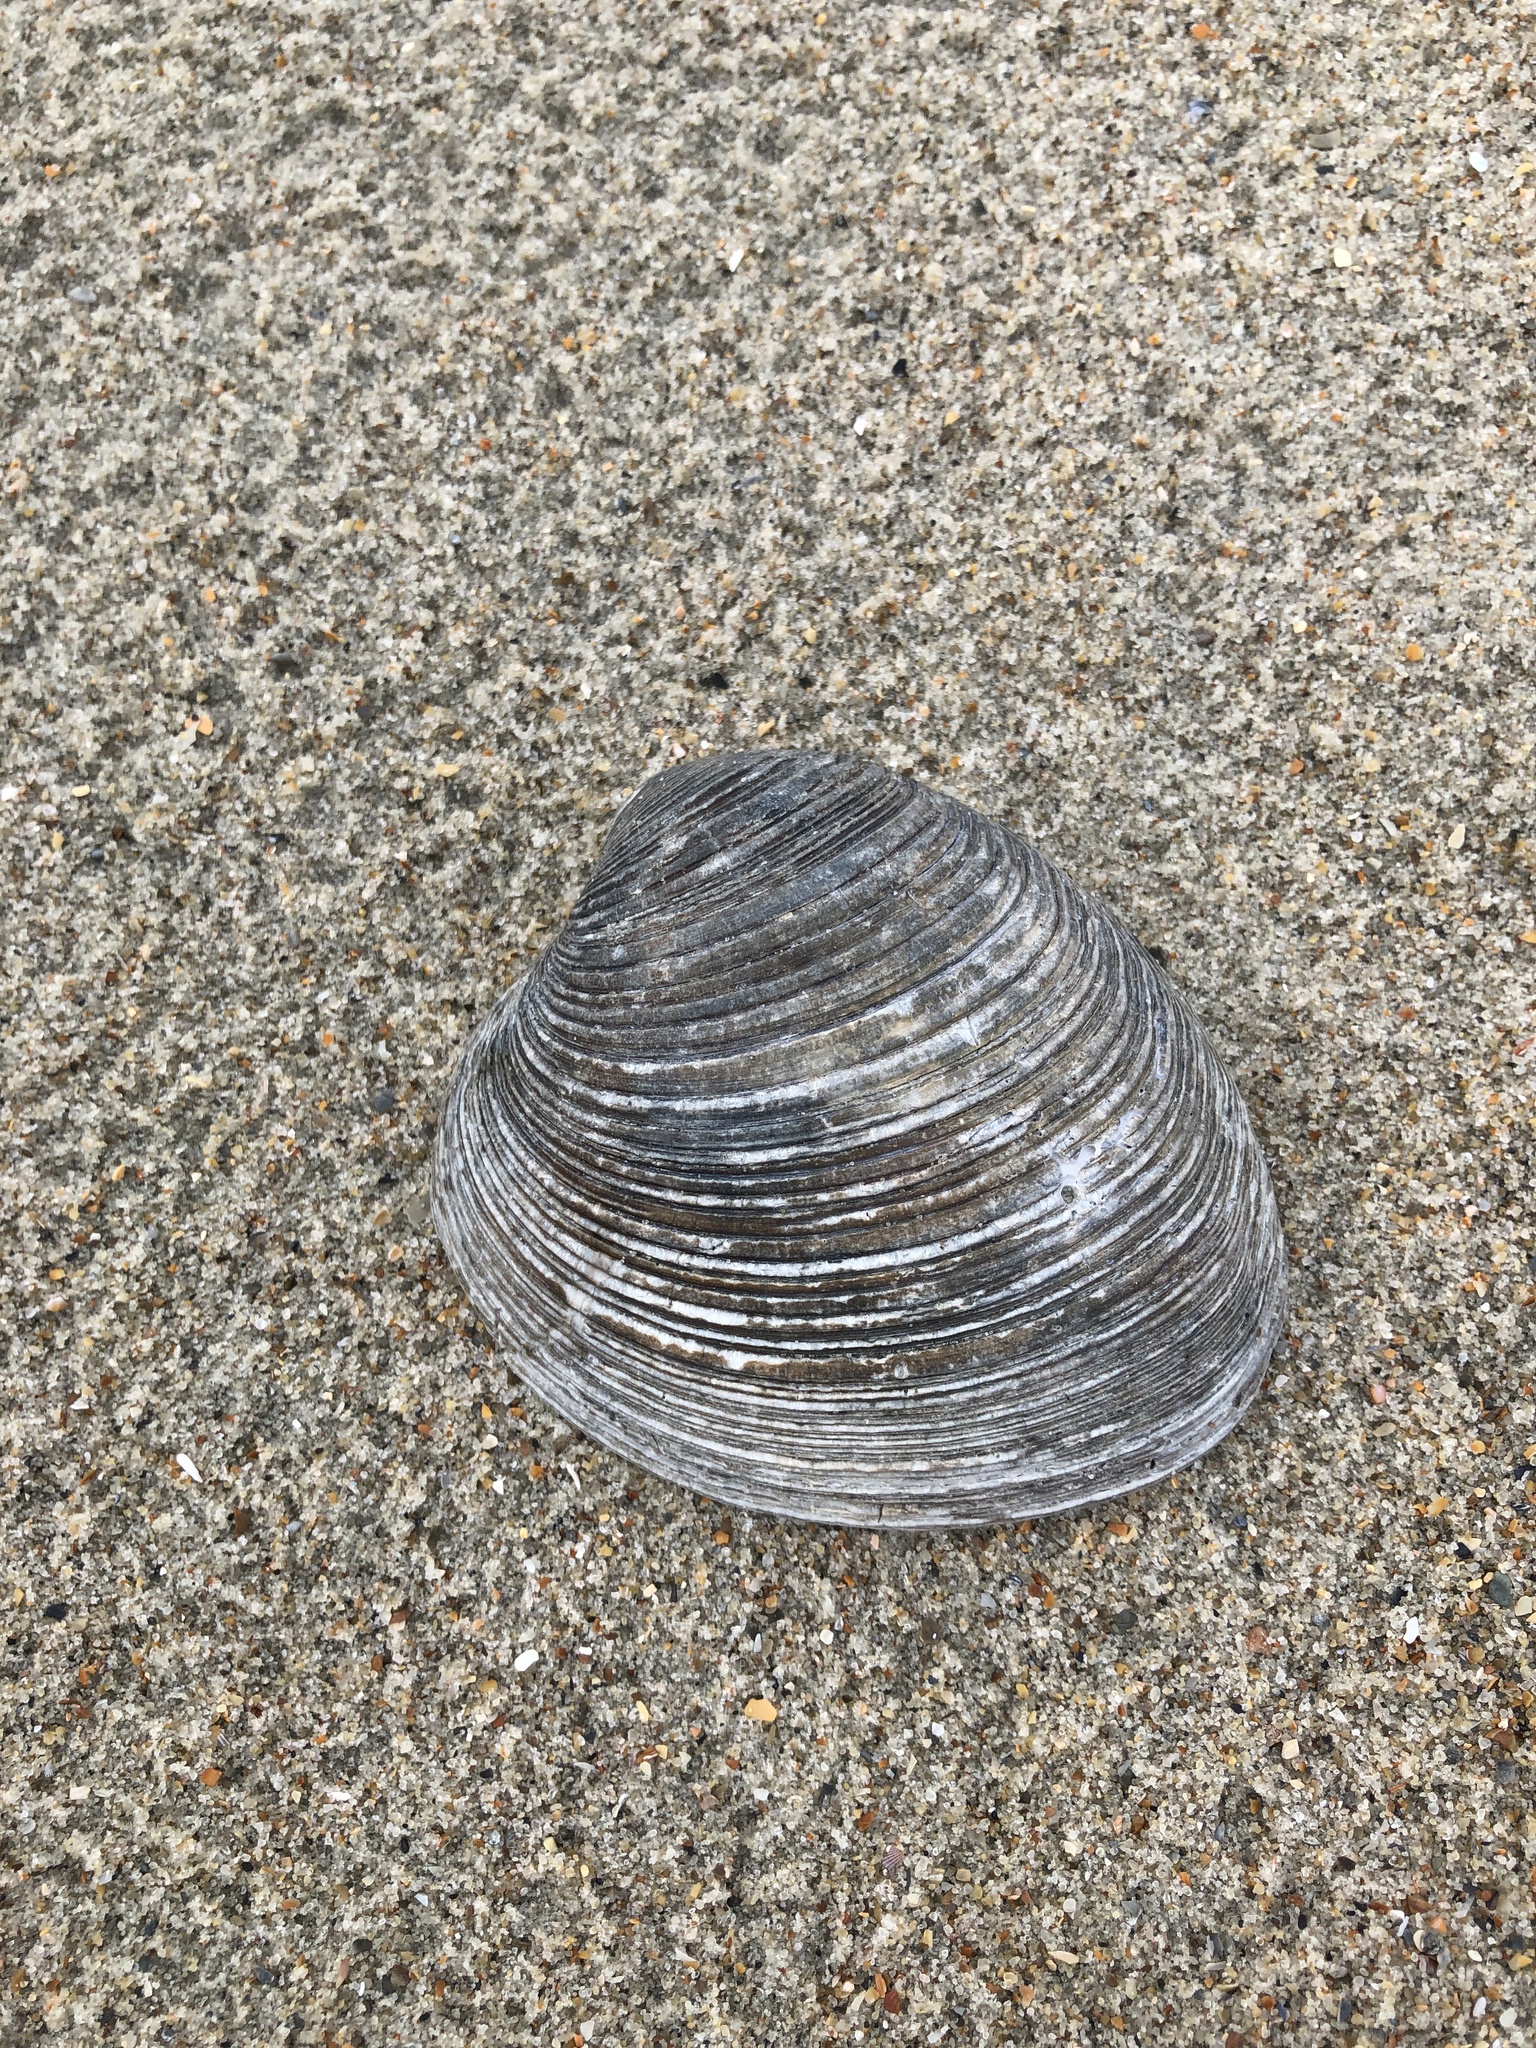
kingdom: Animalia
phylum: Mollusca
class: Bivalvia
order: Venerida
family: Veneridae
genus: Mercenaria
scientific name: Mercenaria mercenaria
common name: American hard-shelled clam
